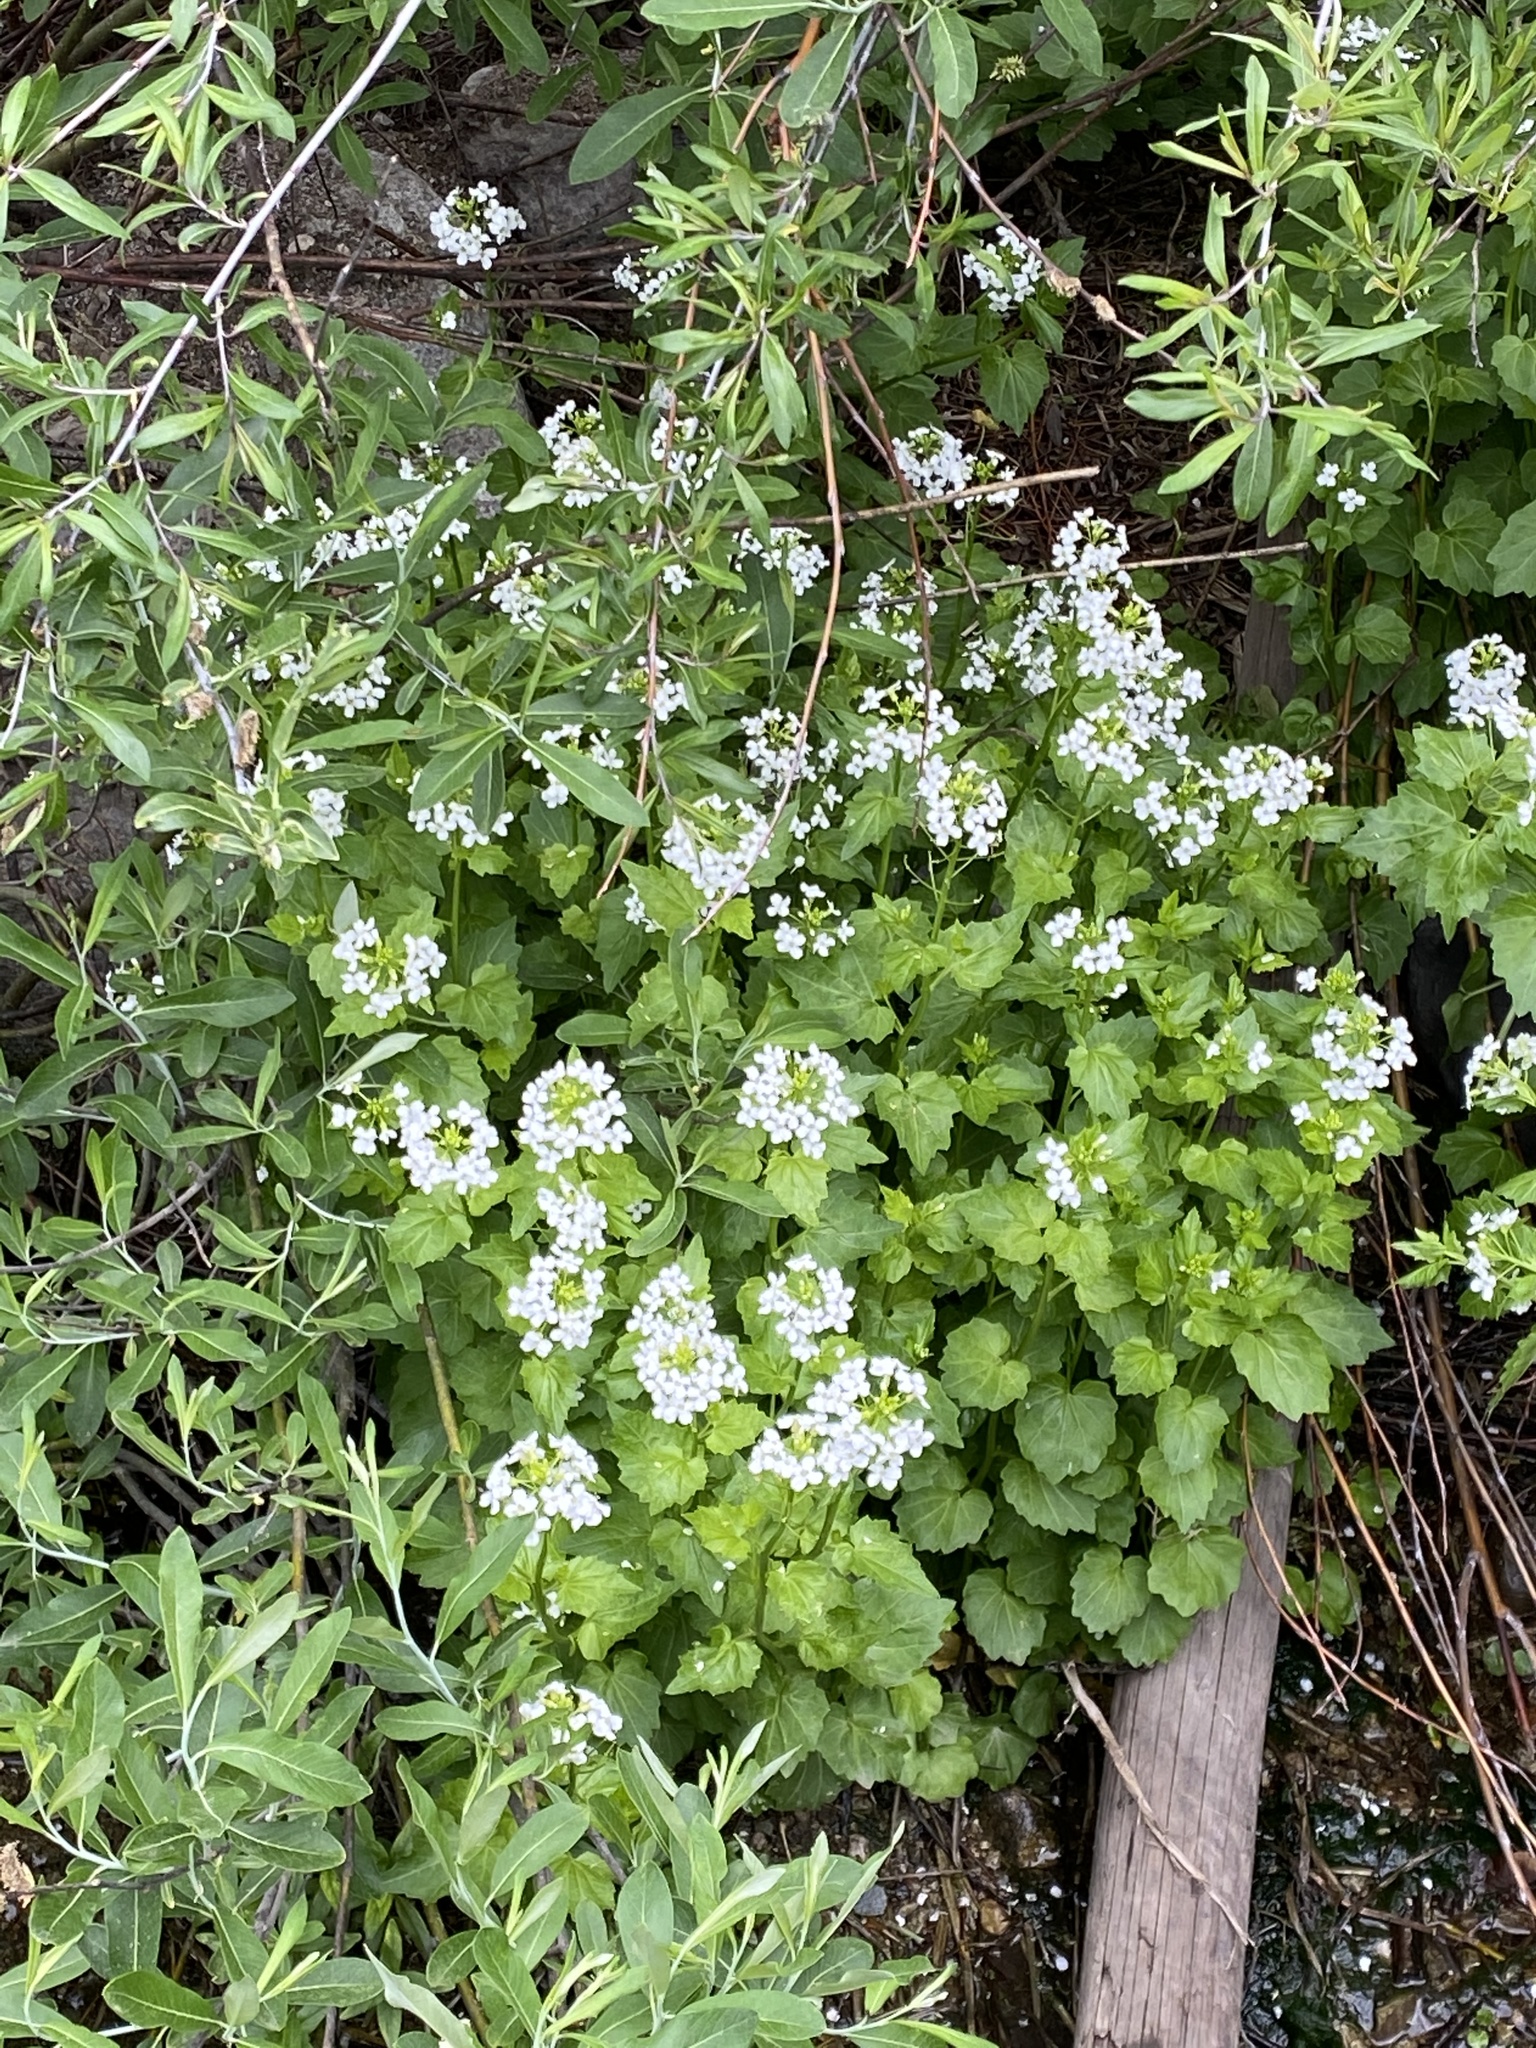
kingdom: Plantae
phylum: Tracheophyta
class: Magnoliopsida
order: Brassicales
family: Brassicaceae
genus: Cardamine
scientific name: Cardamine cordifolia
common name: Heart-leaf bittercress
